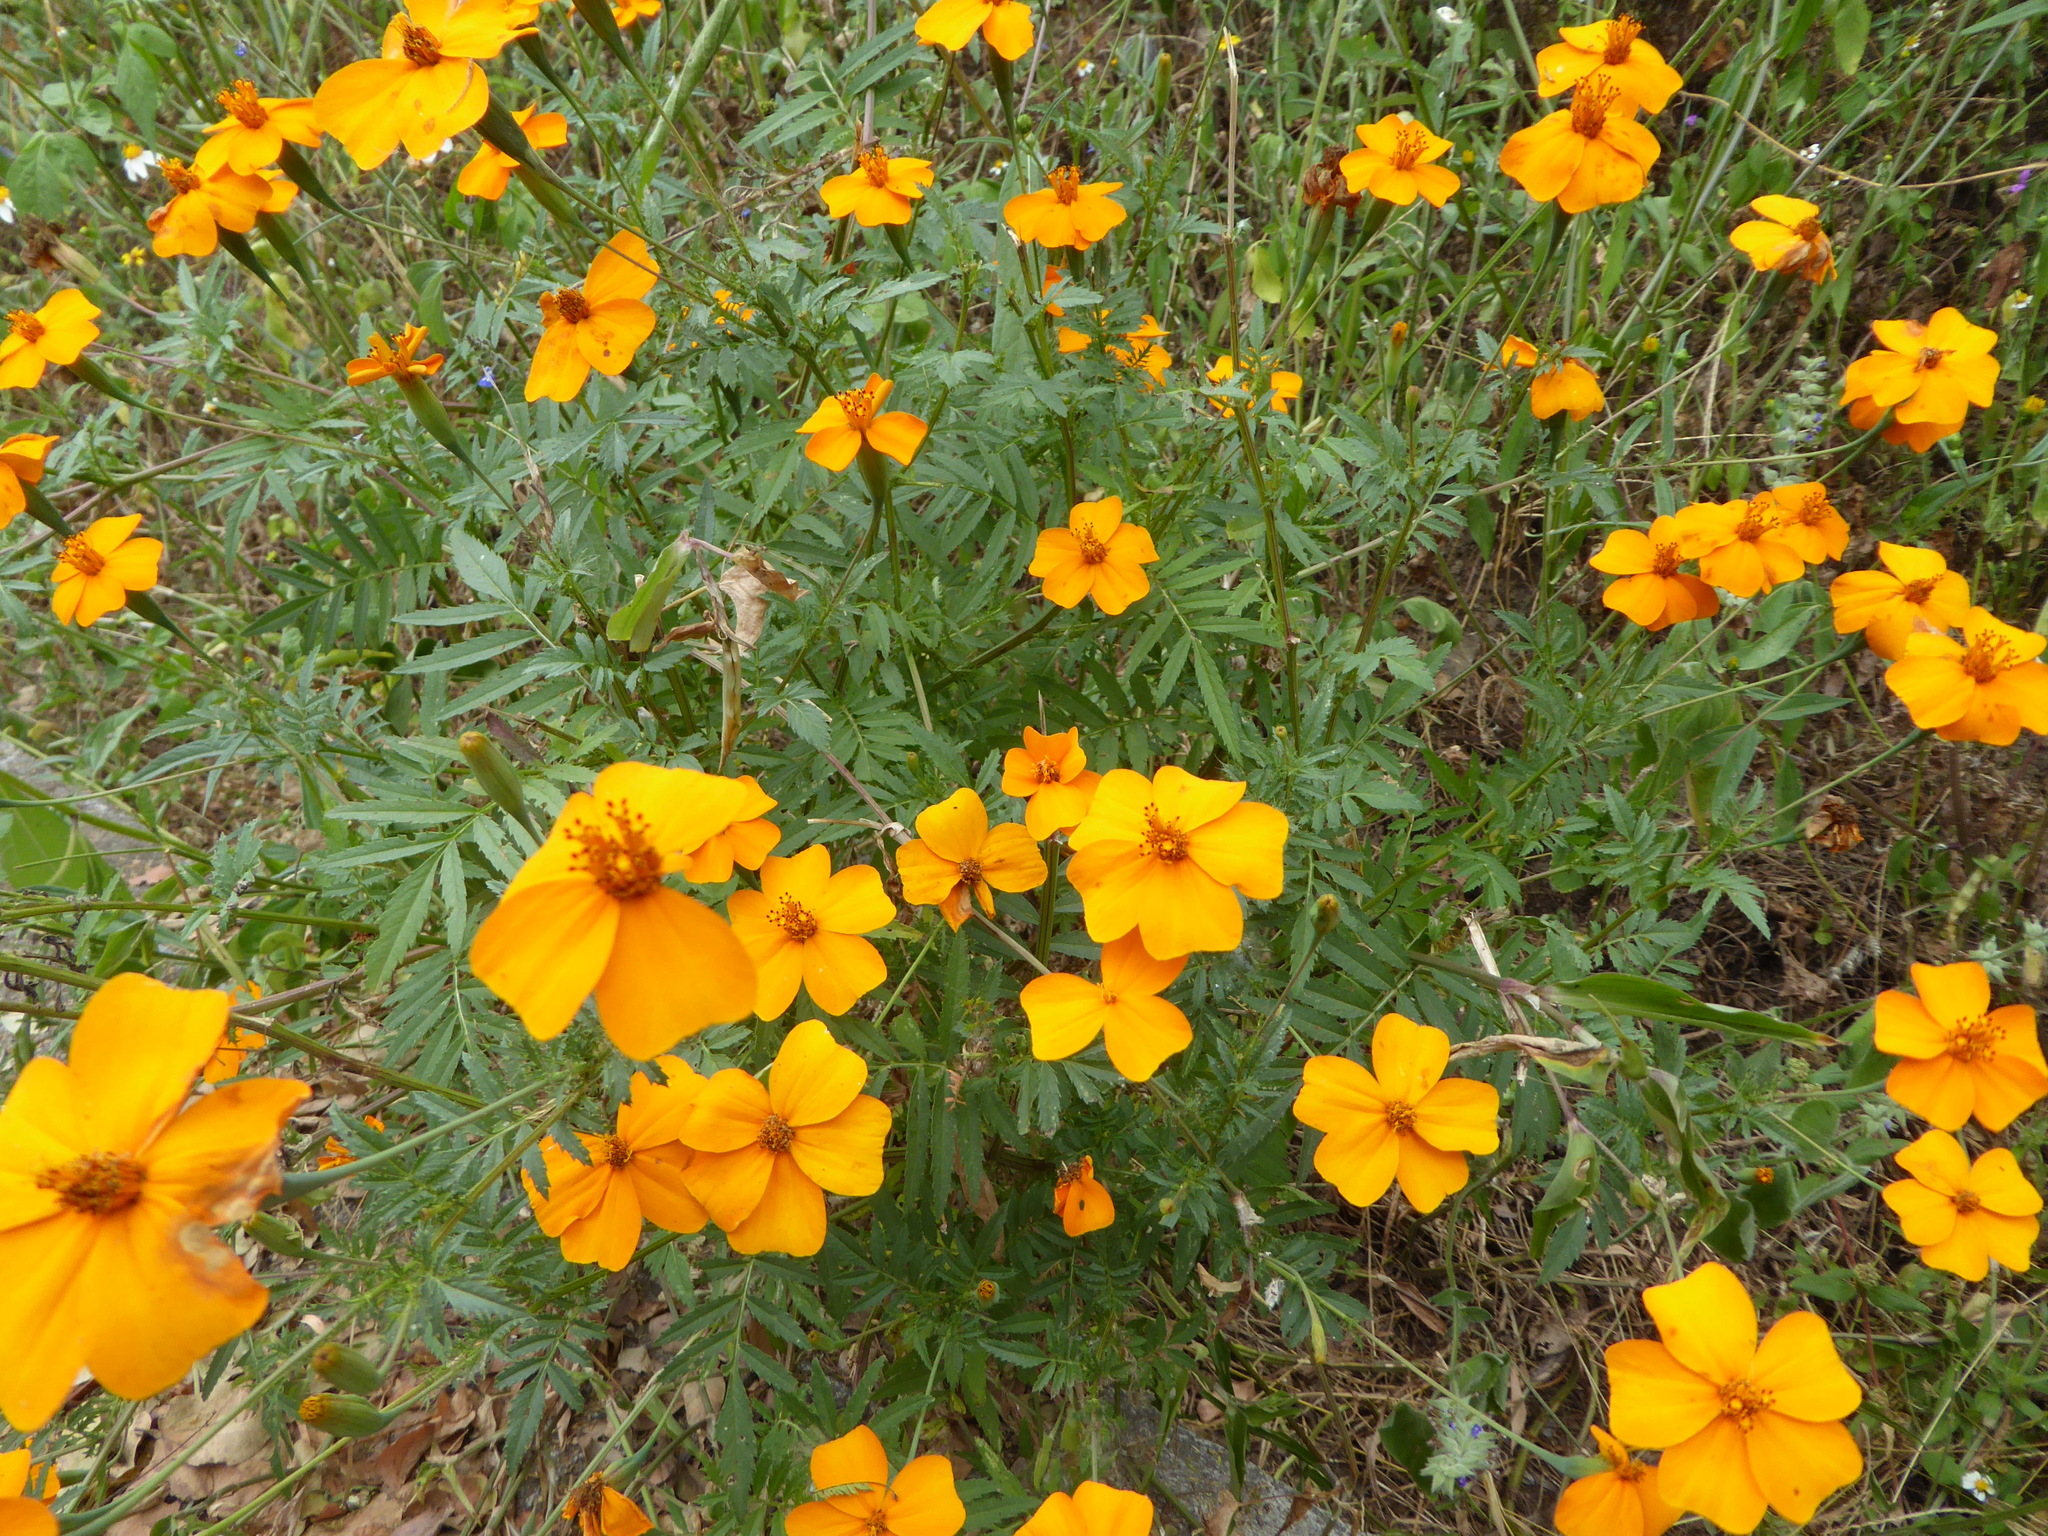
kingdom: Plantae
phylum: Tracheophyta
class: Magnoliopsida
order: Asterales
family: Asteraceae
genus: Tagetes
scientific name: Tagetes erecta
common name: African marigold
